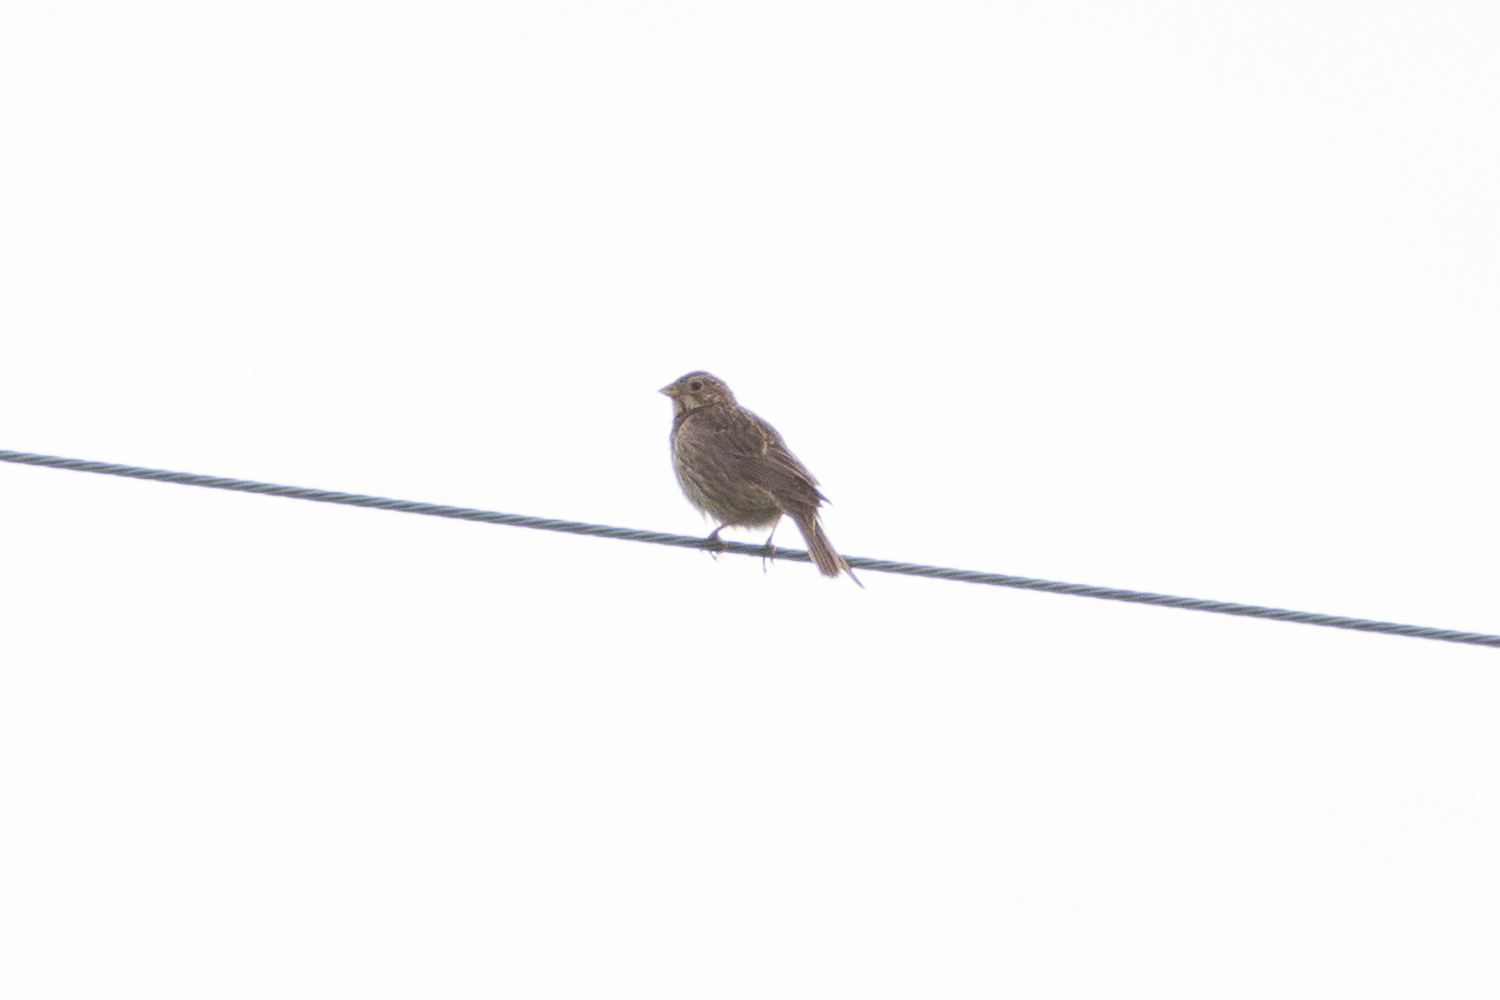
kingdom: Animalia
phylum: Chordata
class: Aves
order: Passeriformes
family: Emberizidae
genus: Emberiza
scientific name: Emberiza calandra
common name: Corn bunting
